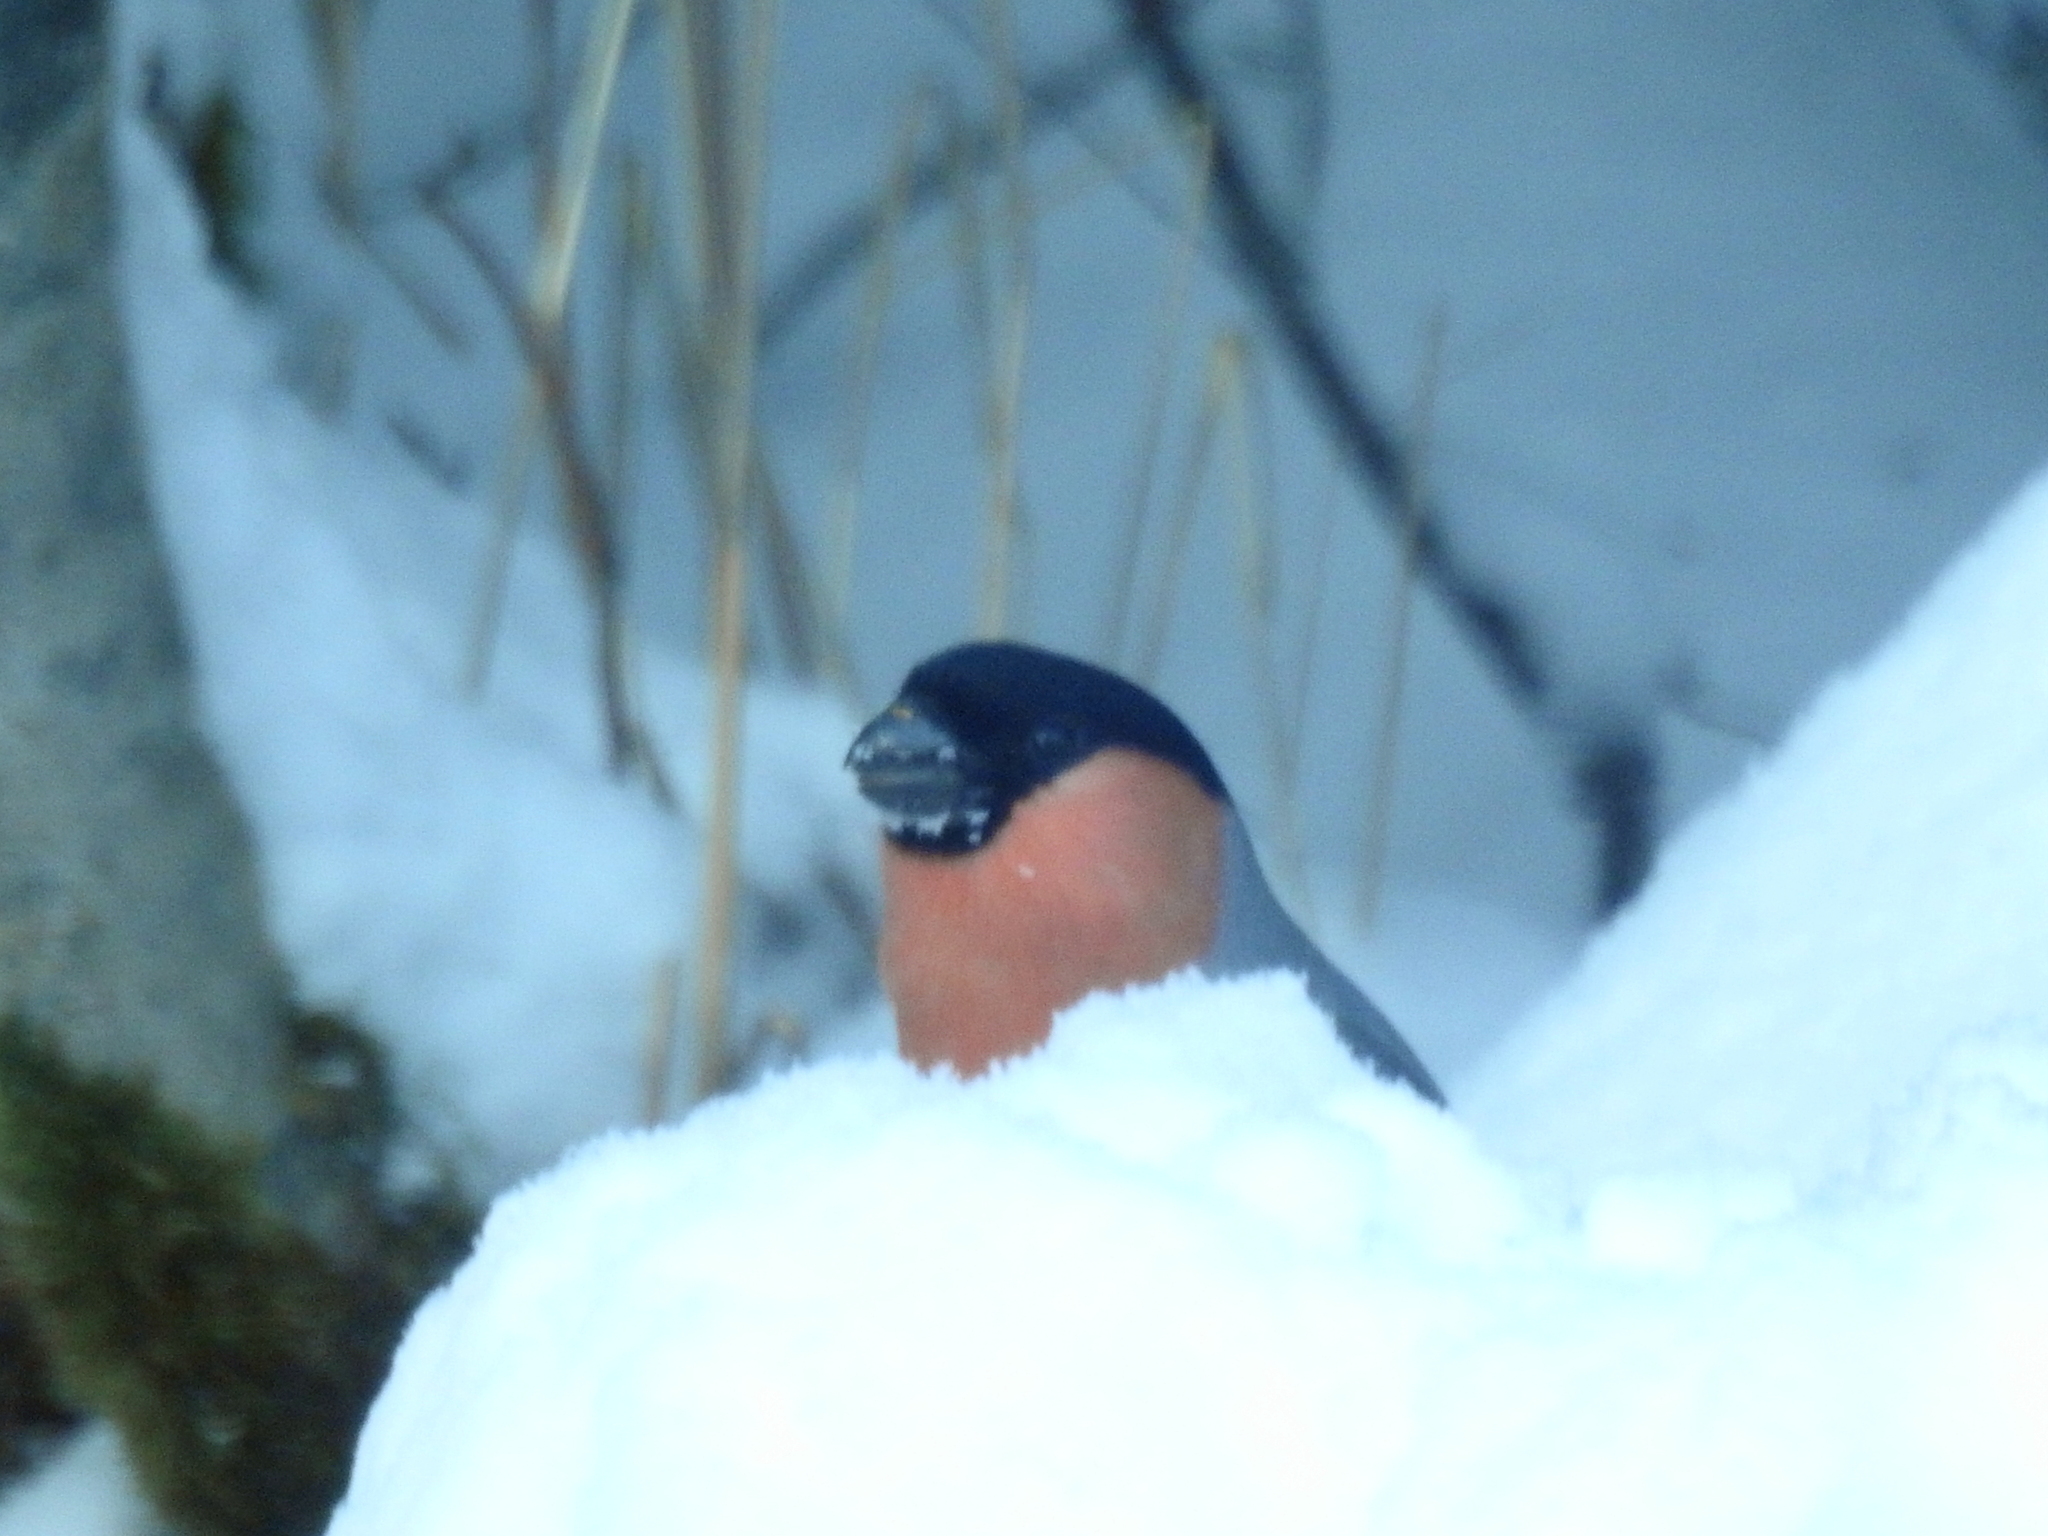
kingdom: Animalia
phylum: Chordata
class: Aves
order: Passeriformes
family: Fringillidae
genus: Pyrrhula
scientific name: Pyrrhula pyrrhula
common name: Eurasian bullfinch
